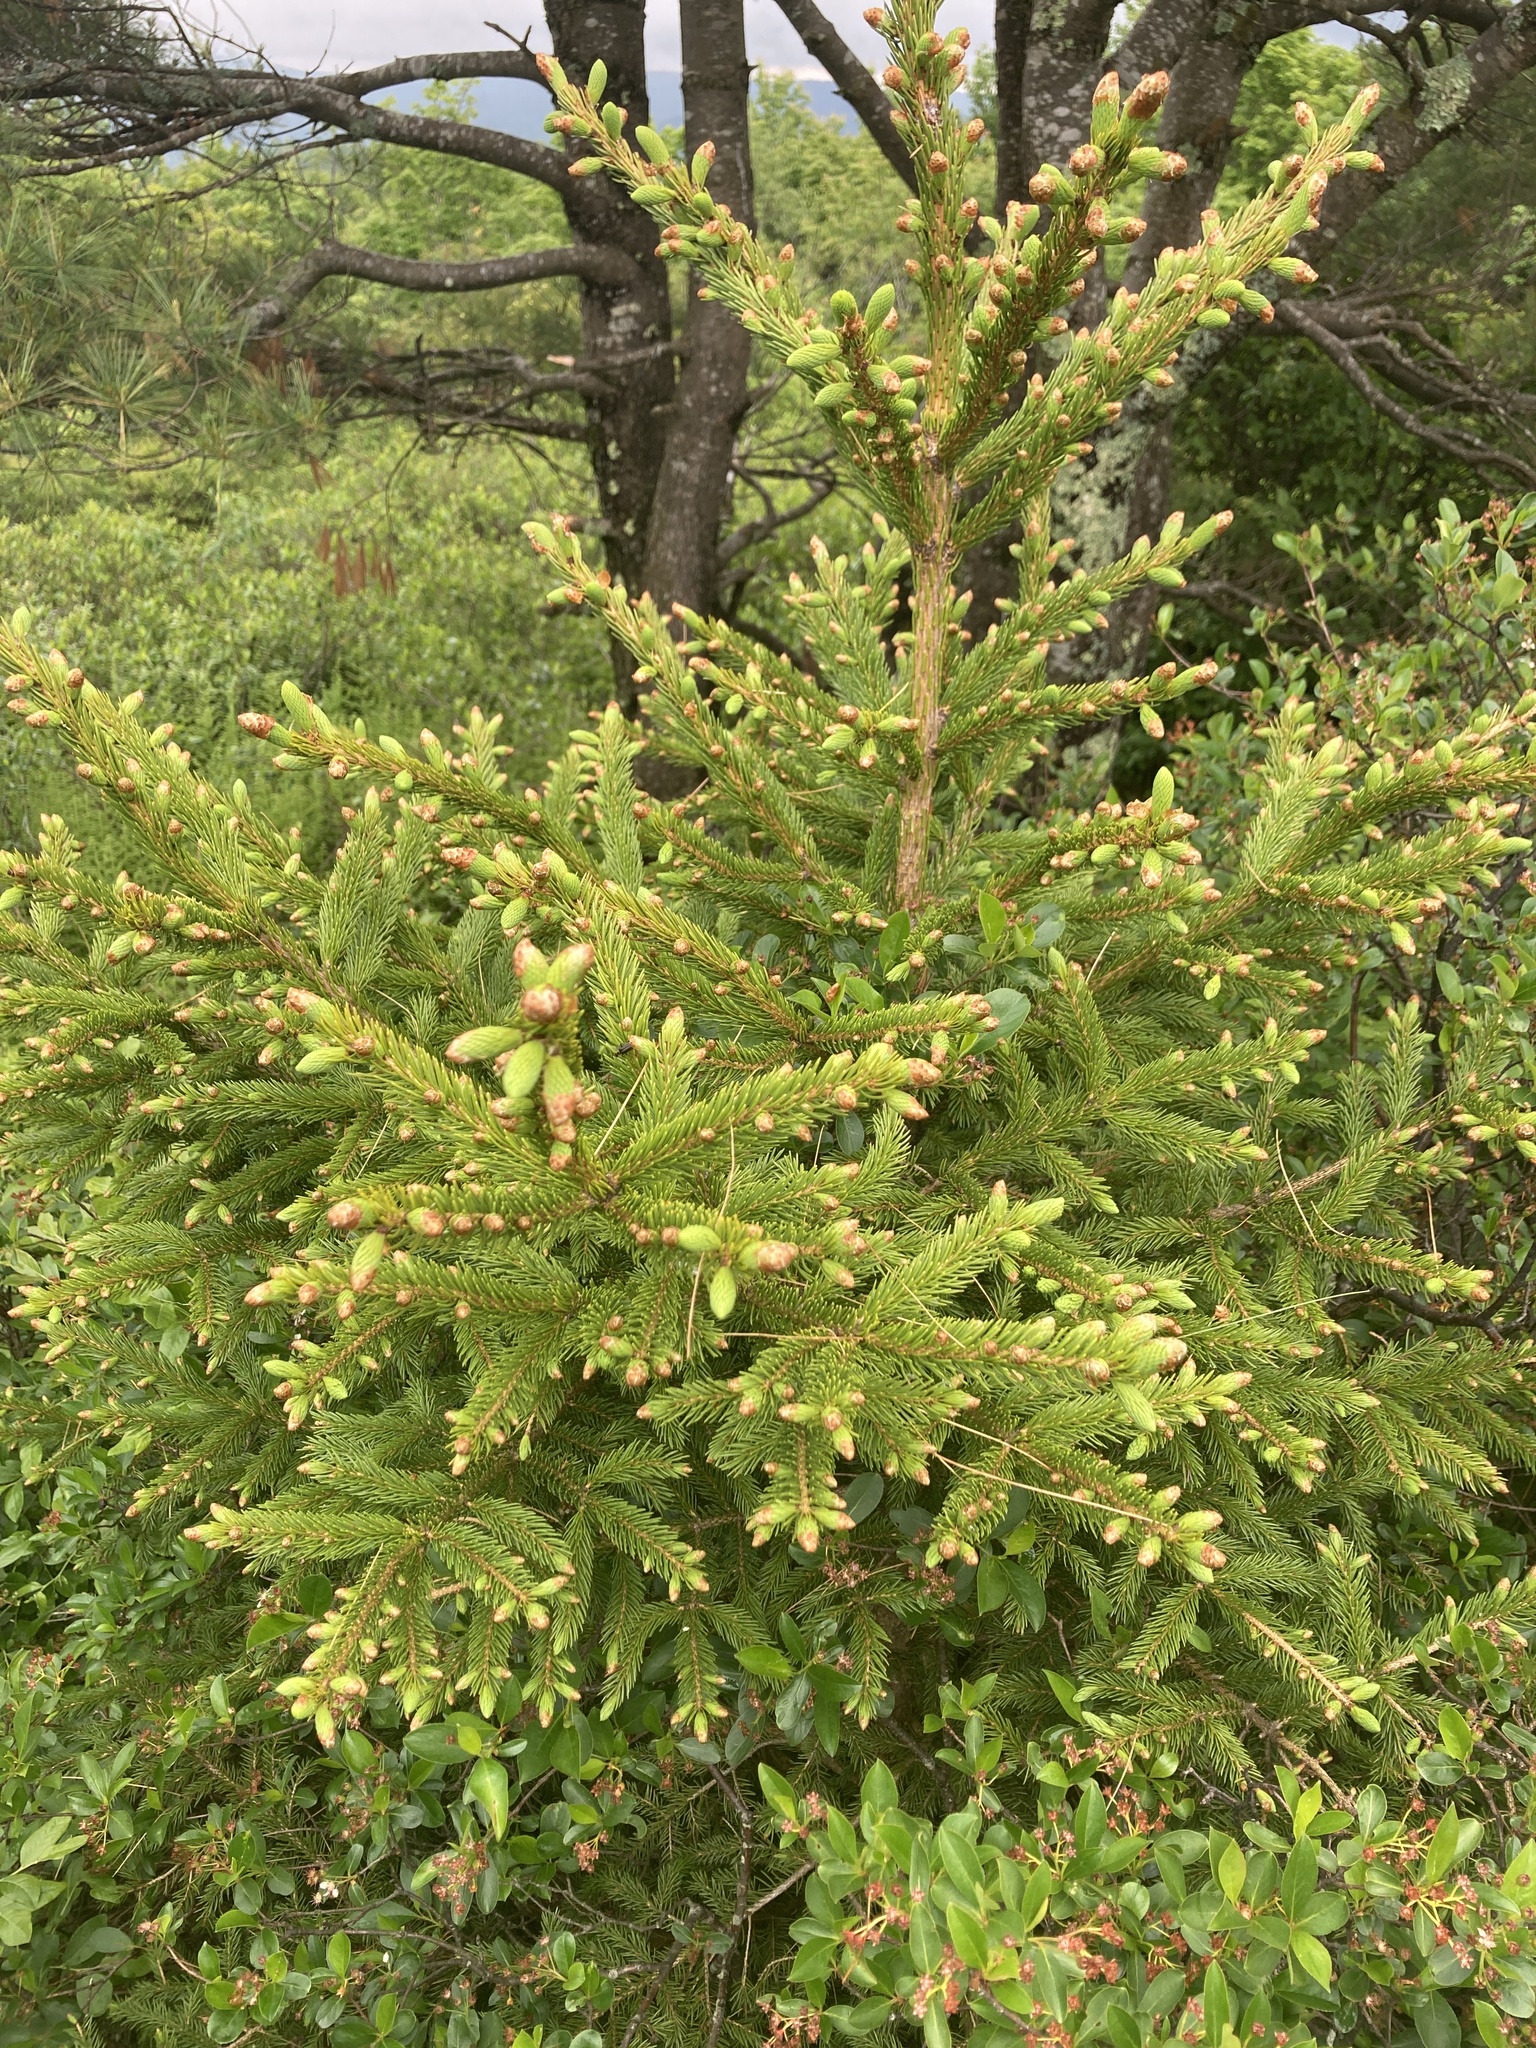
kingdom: Plantae
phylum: Tracheophyta
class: Pinopsida
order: Pinales
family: Pinaceae
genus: Picea
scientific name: Picea rubens
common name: Red spruce
